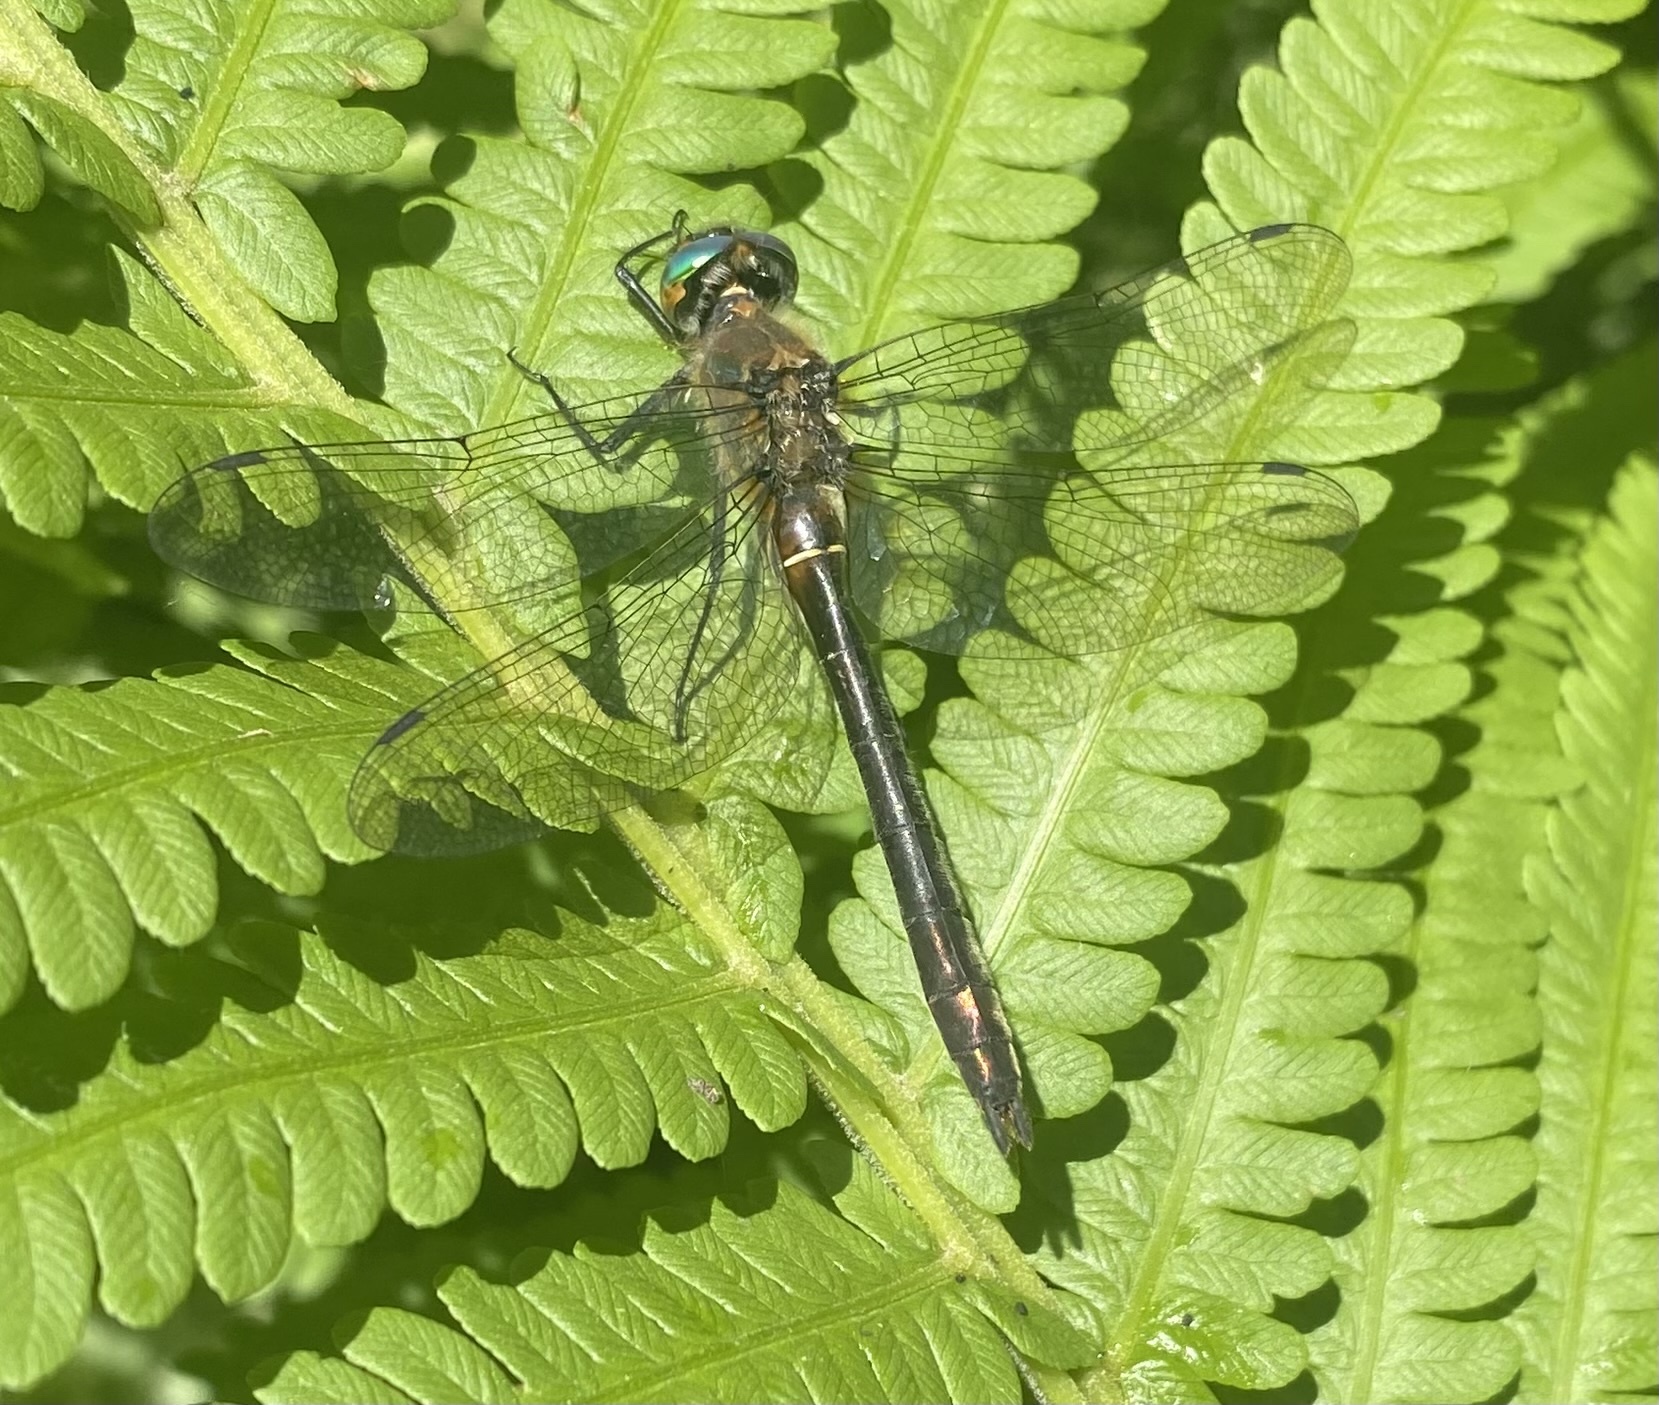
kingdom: Animalia
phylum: Arthropoda
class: Insecta
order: Odonata
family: Corduliidae
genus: Cordulia
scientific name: Cordulia shurtleffii
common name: American emerald
